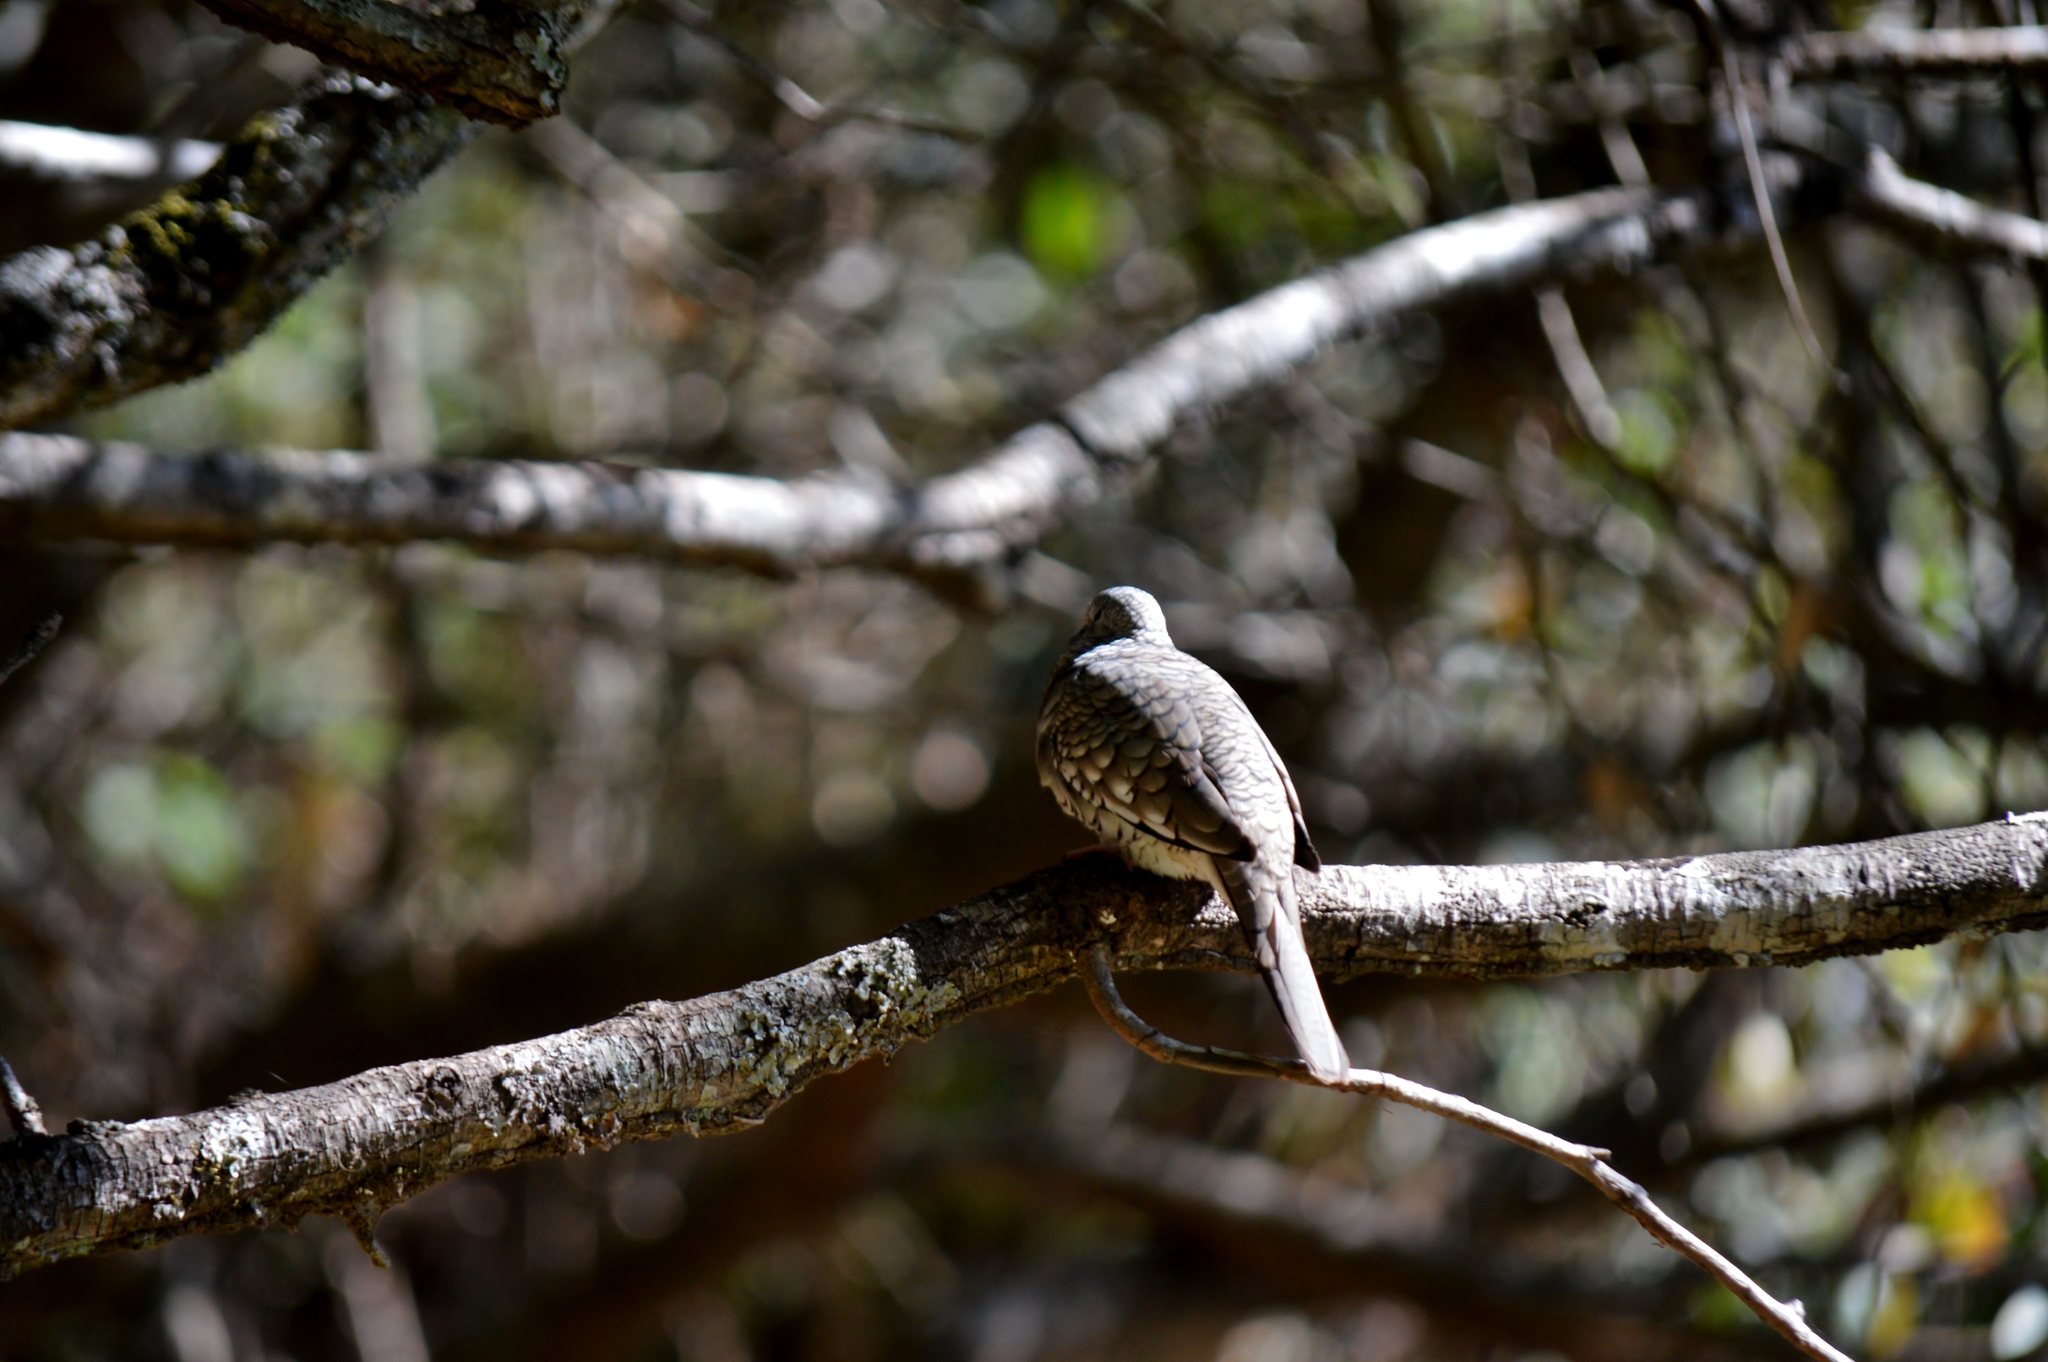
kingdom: Animalia
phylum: Chordata
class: Aves
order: Columbiformes
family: Columbidae
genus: Columbina
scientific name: Columbina squammata
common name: Scaled dove
